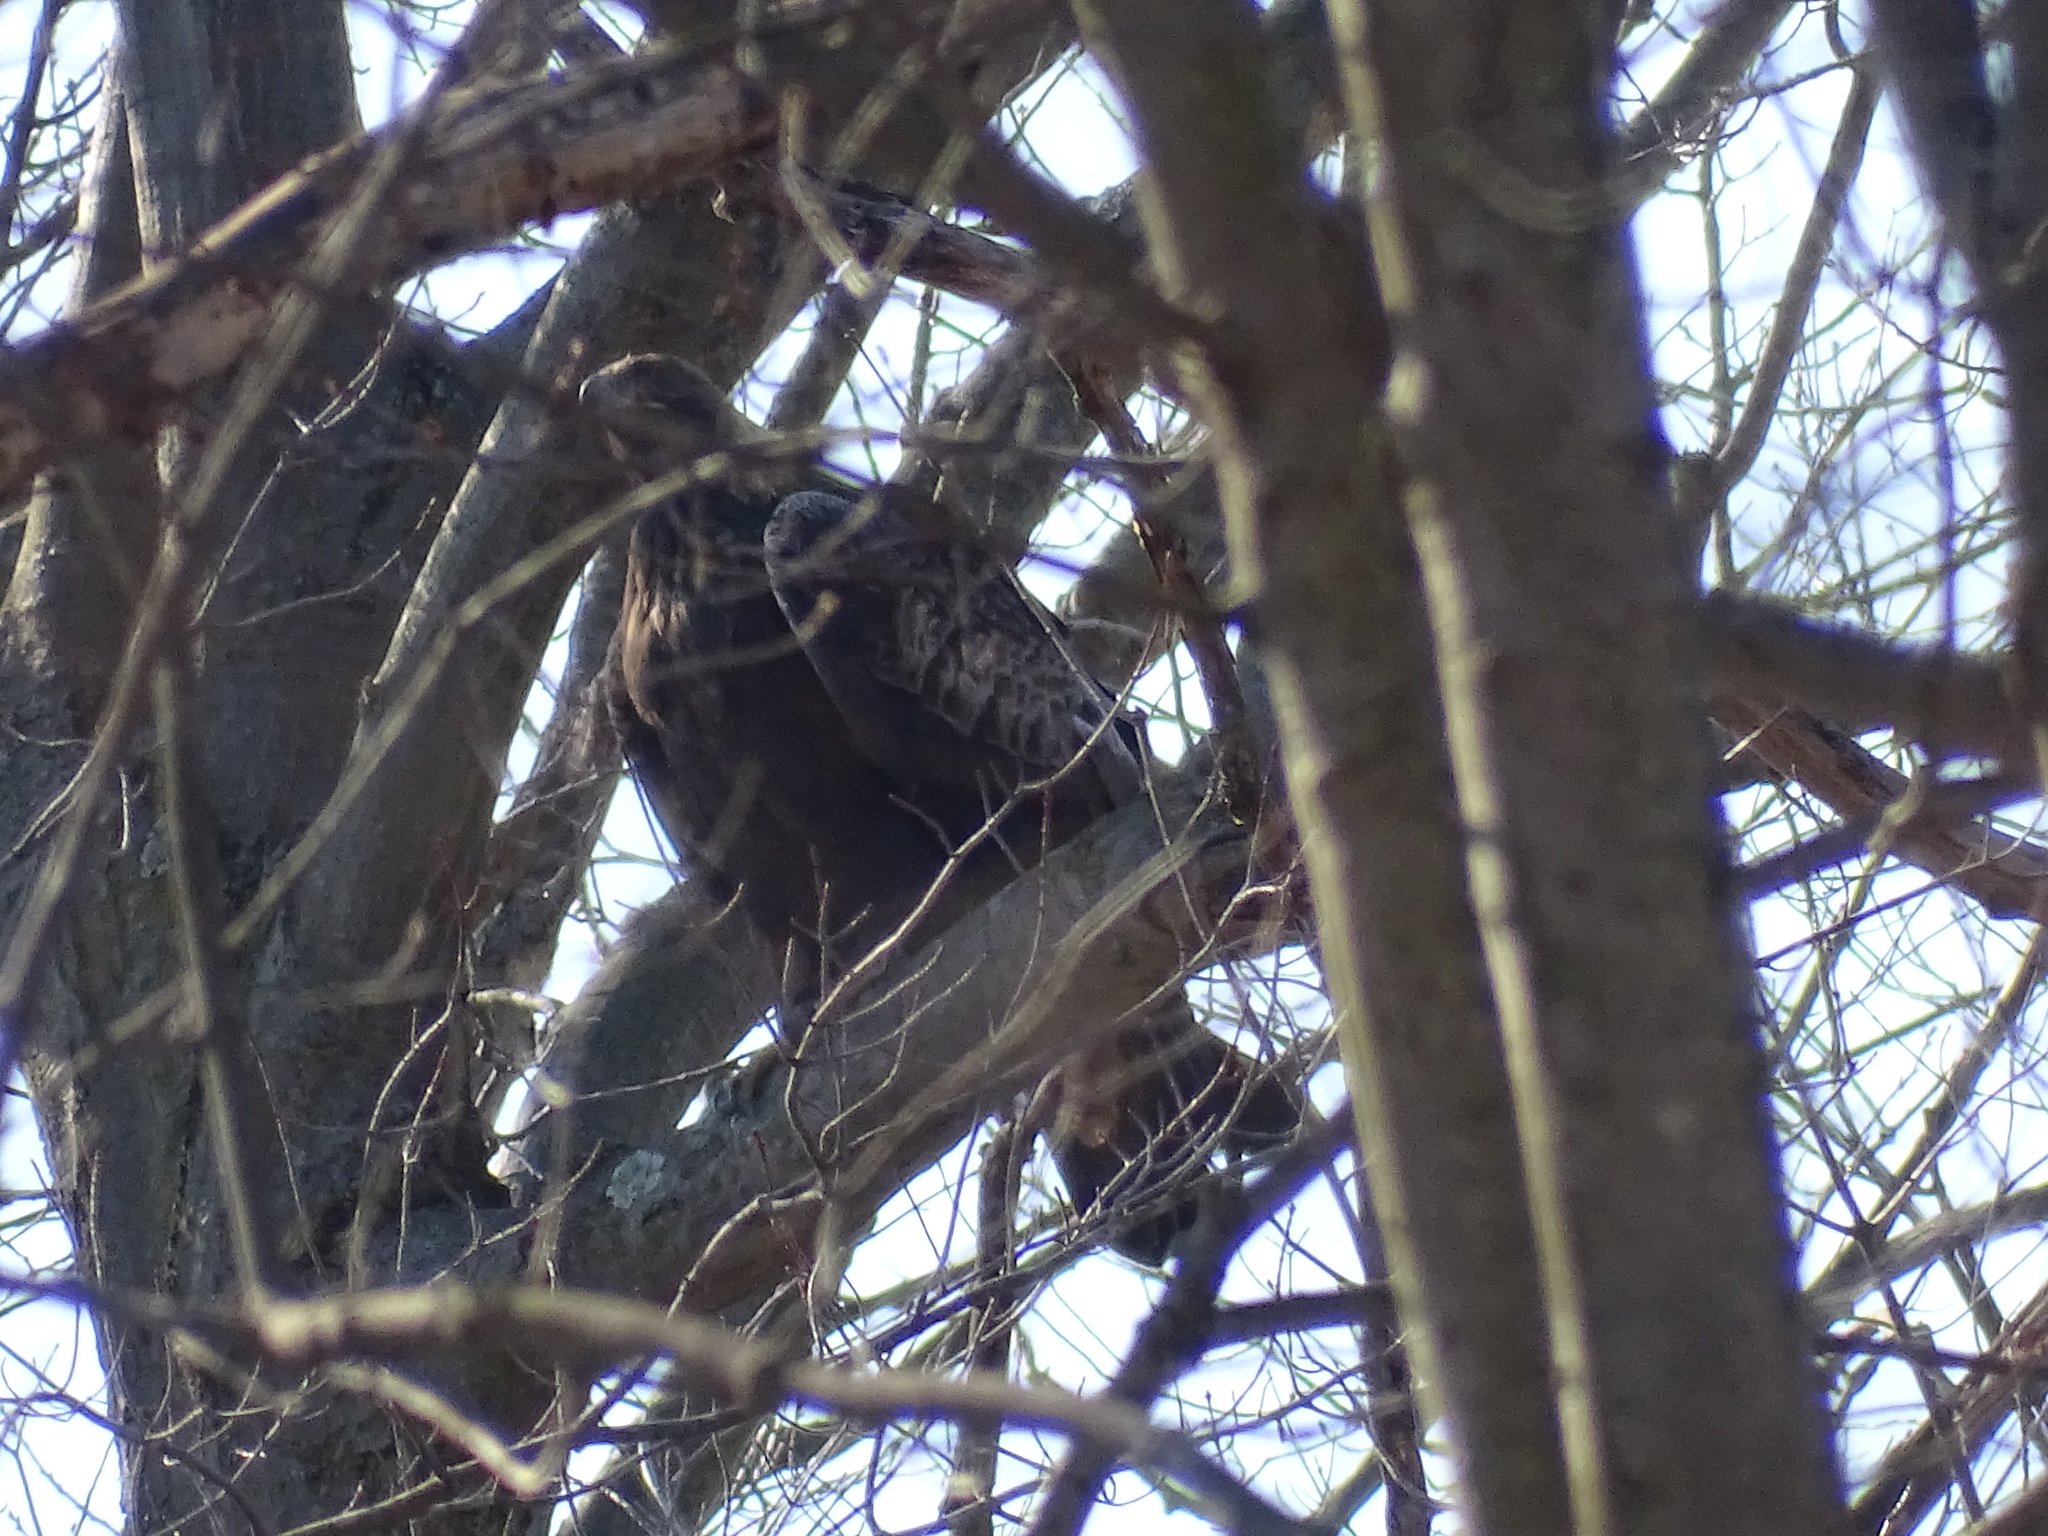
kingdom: Animalia
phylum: Chordata
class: Aves
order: Accipitriformes
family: Accipitridae
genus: Aquila
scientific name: Aquila chrysaetos
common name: Golden eagle
